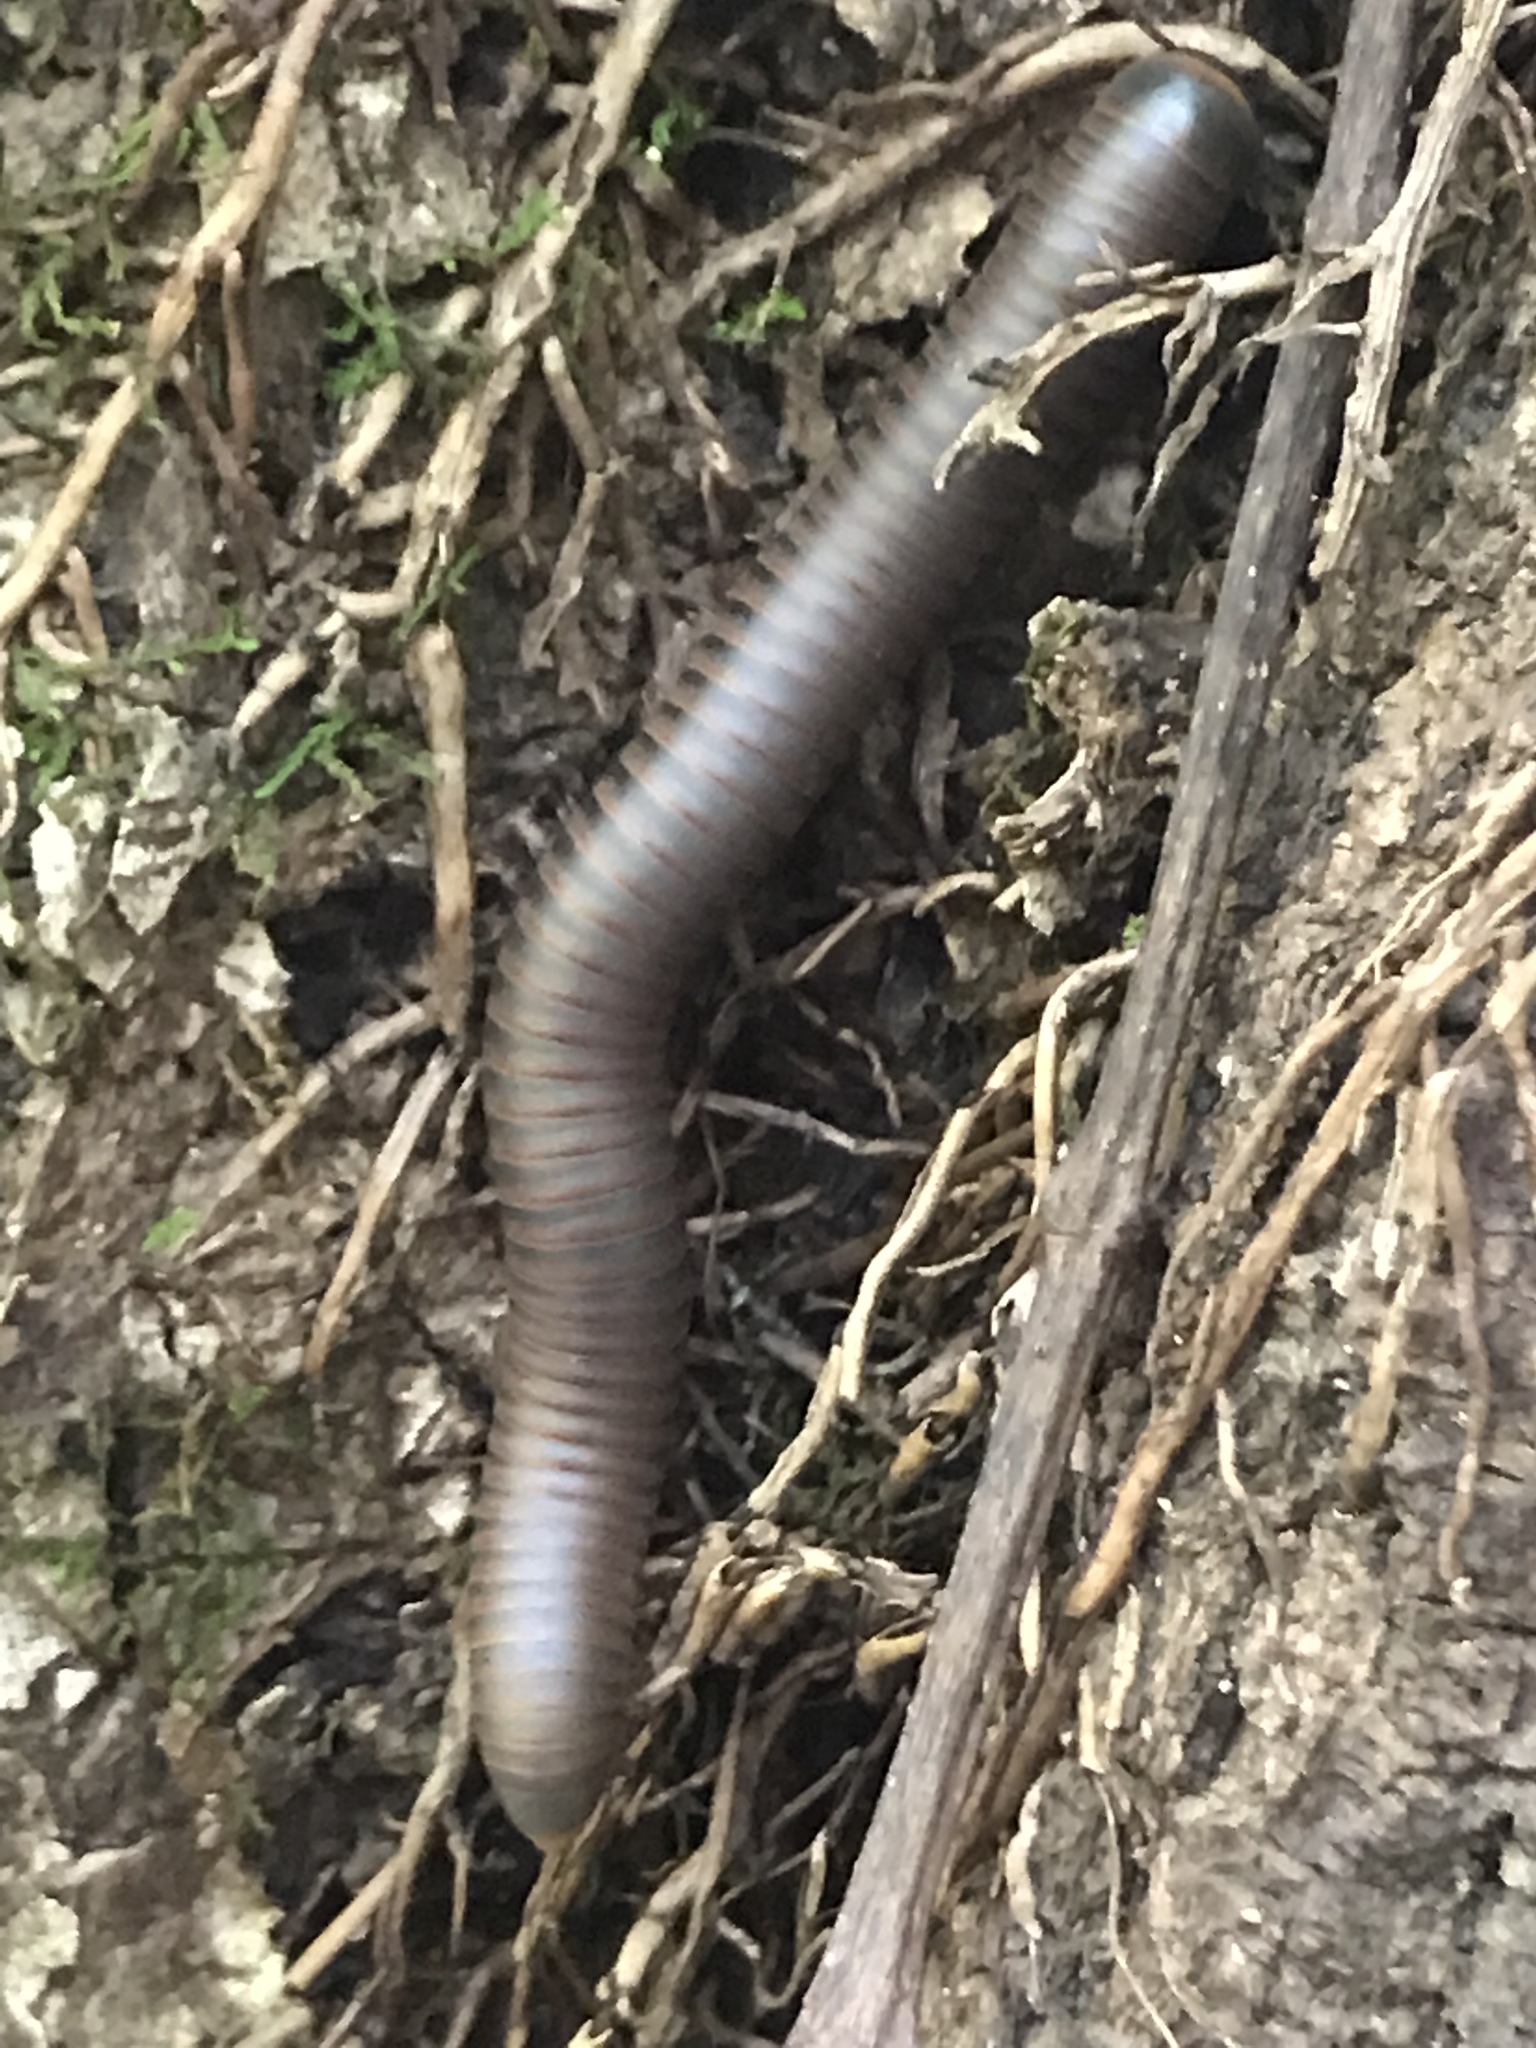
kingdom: Animalia
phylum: Arthropoda
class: Diplopoda
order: Spirobolida
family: Spirobolidae
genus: Narceus
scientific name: Narceus
